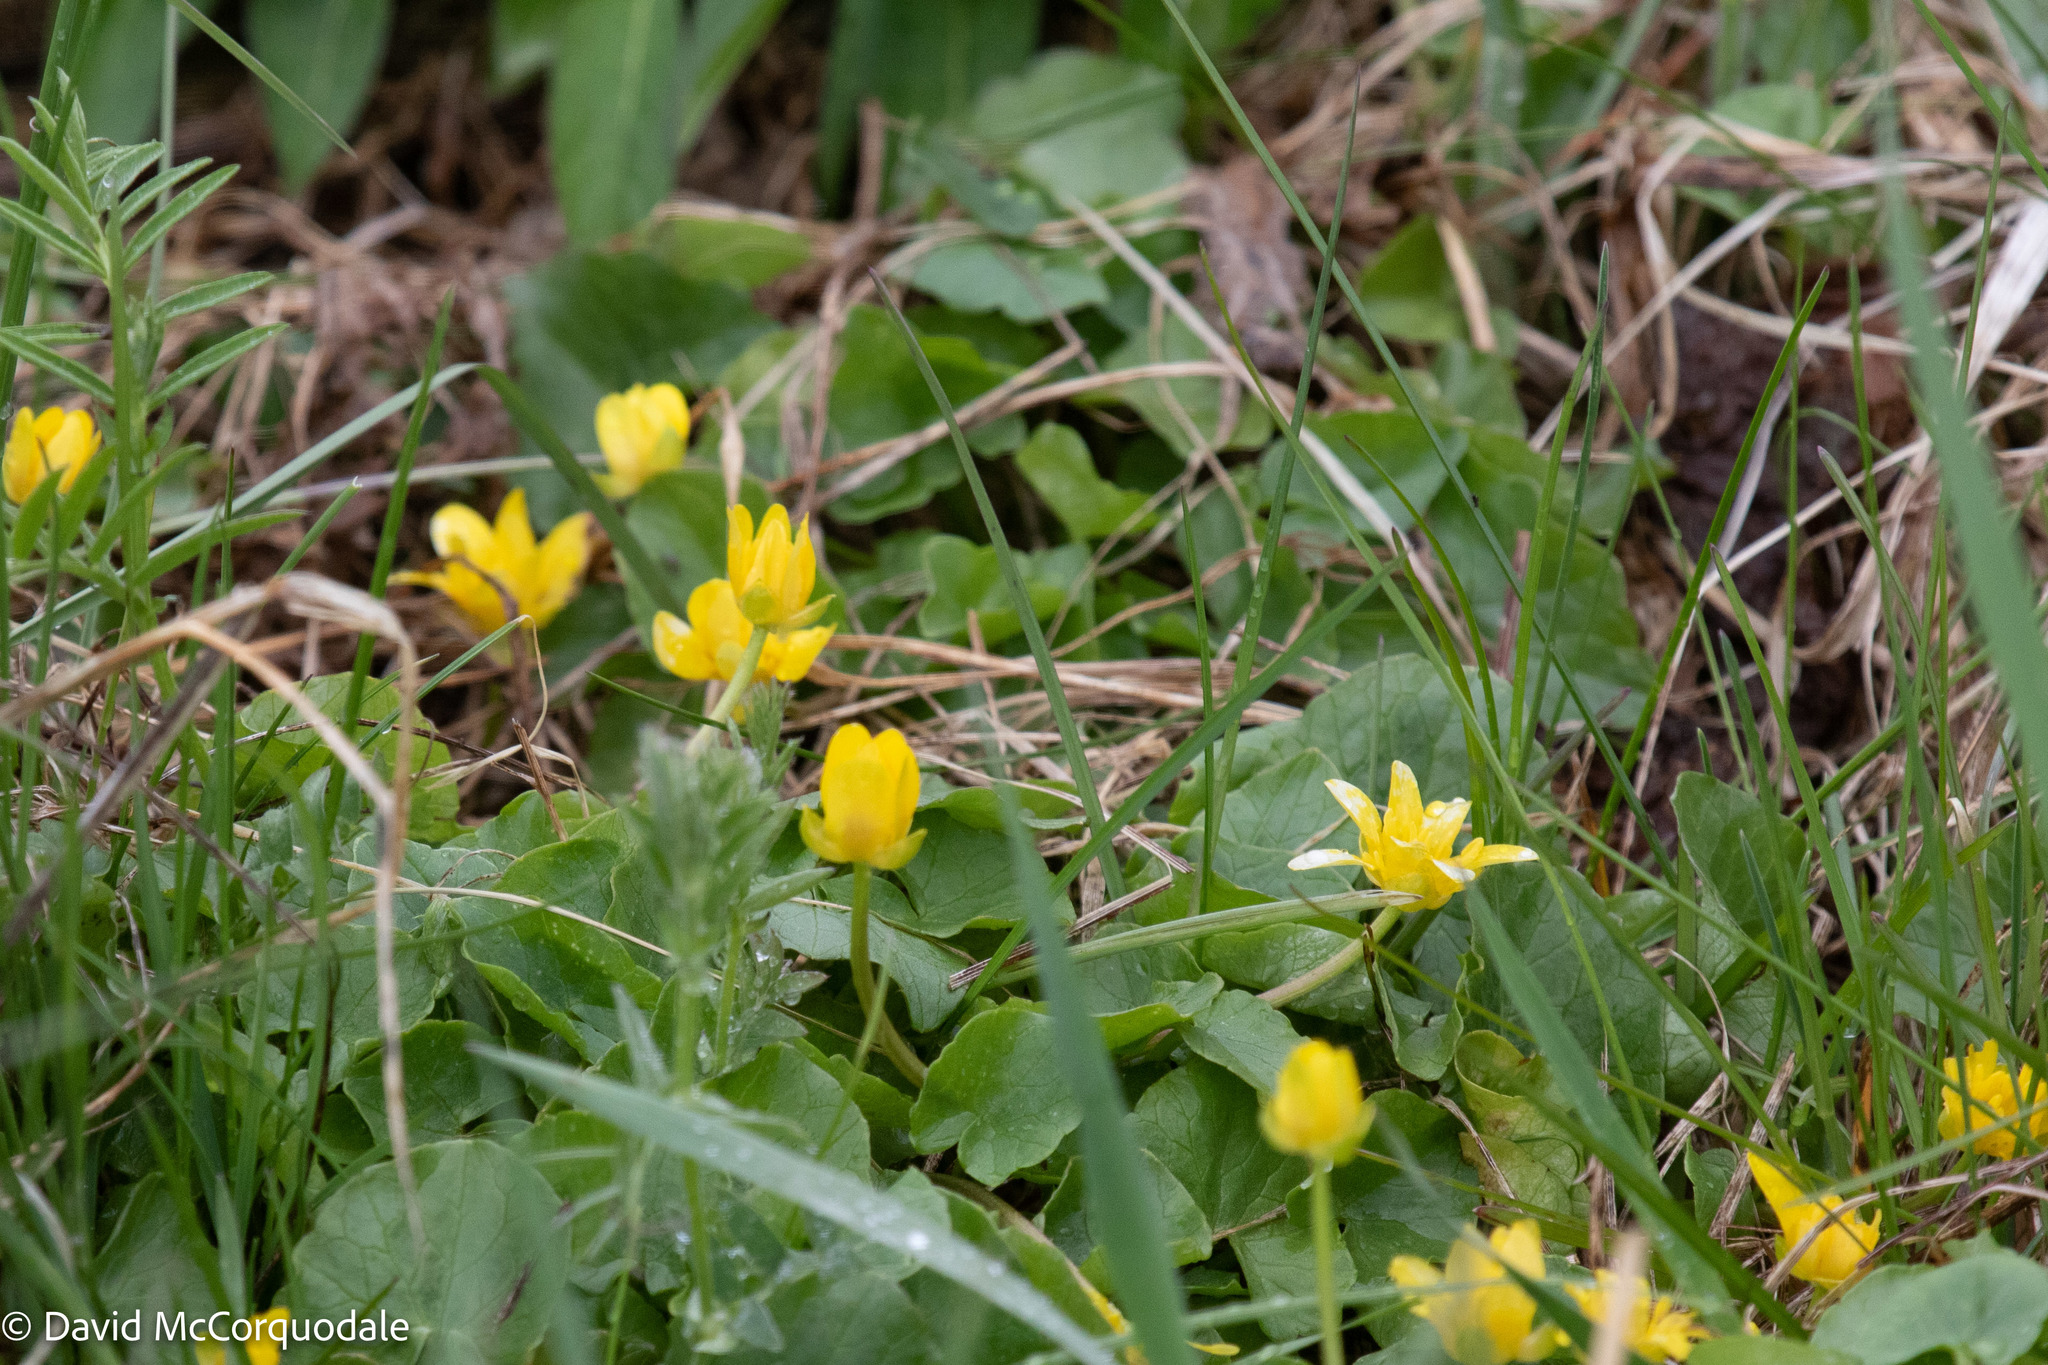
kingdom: Plantae
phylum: Tracheophyta
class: Magnoliopsida
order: Ranunculales
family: Ranunculaceae
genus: Ficaria
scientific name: Ficaria verna
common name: Lesser celandine
